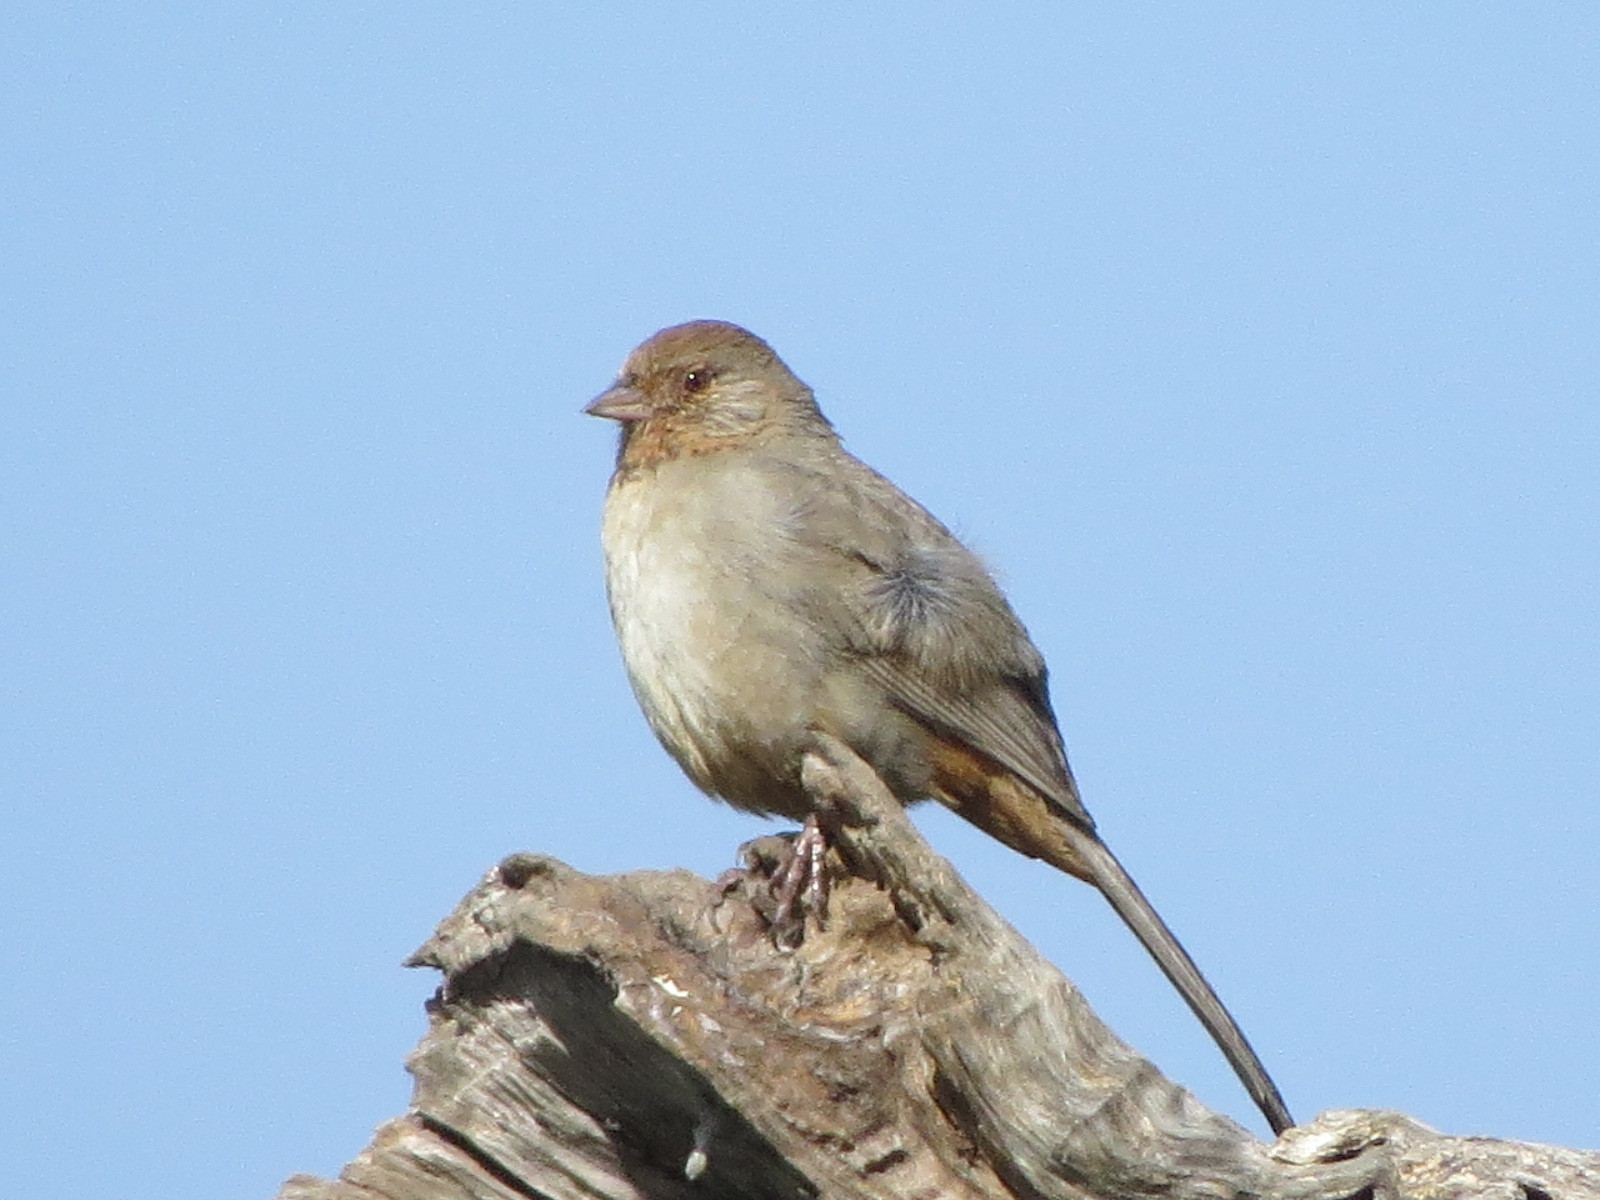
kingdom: Animalia
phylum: Chordata
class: Aves
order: Passeriformes
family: Passerellidae
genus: Melozone
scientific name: Melozone crissalis
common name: California towhee
